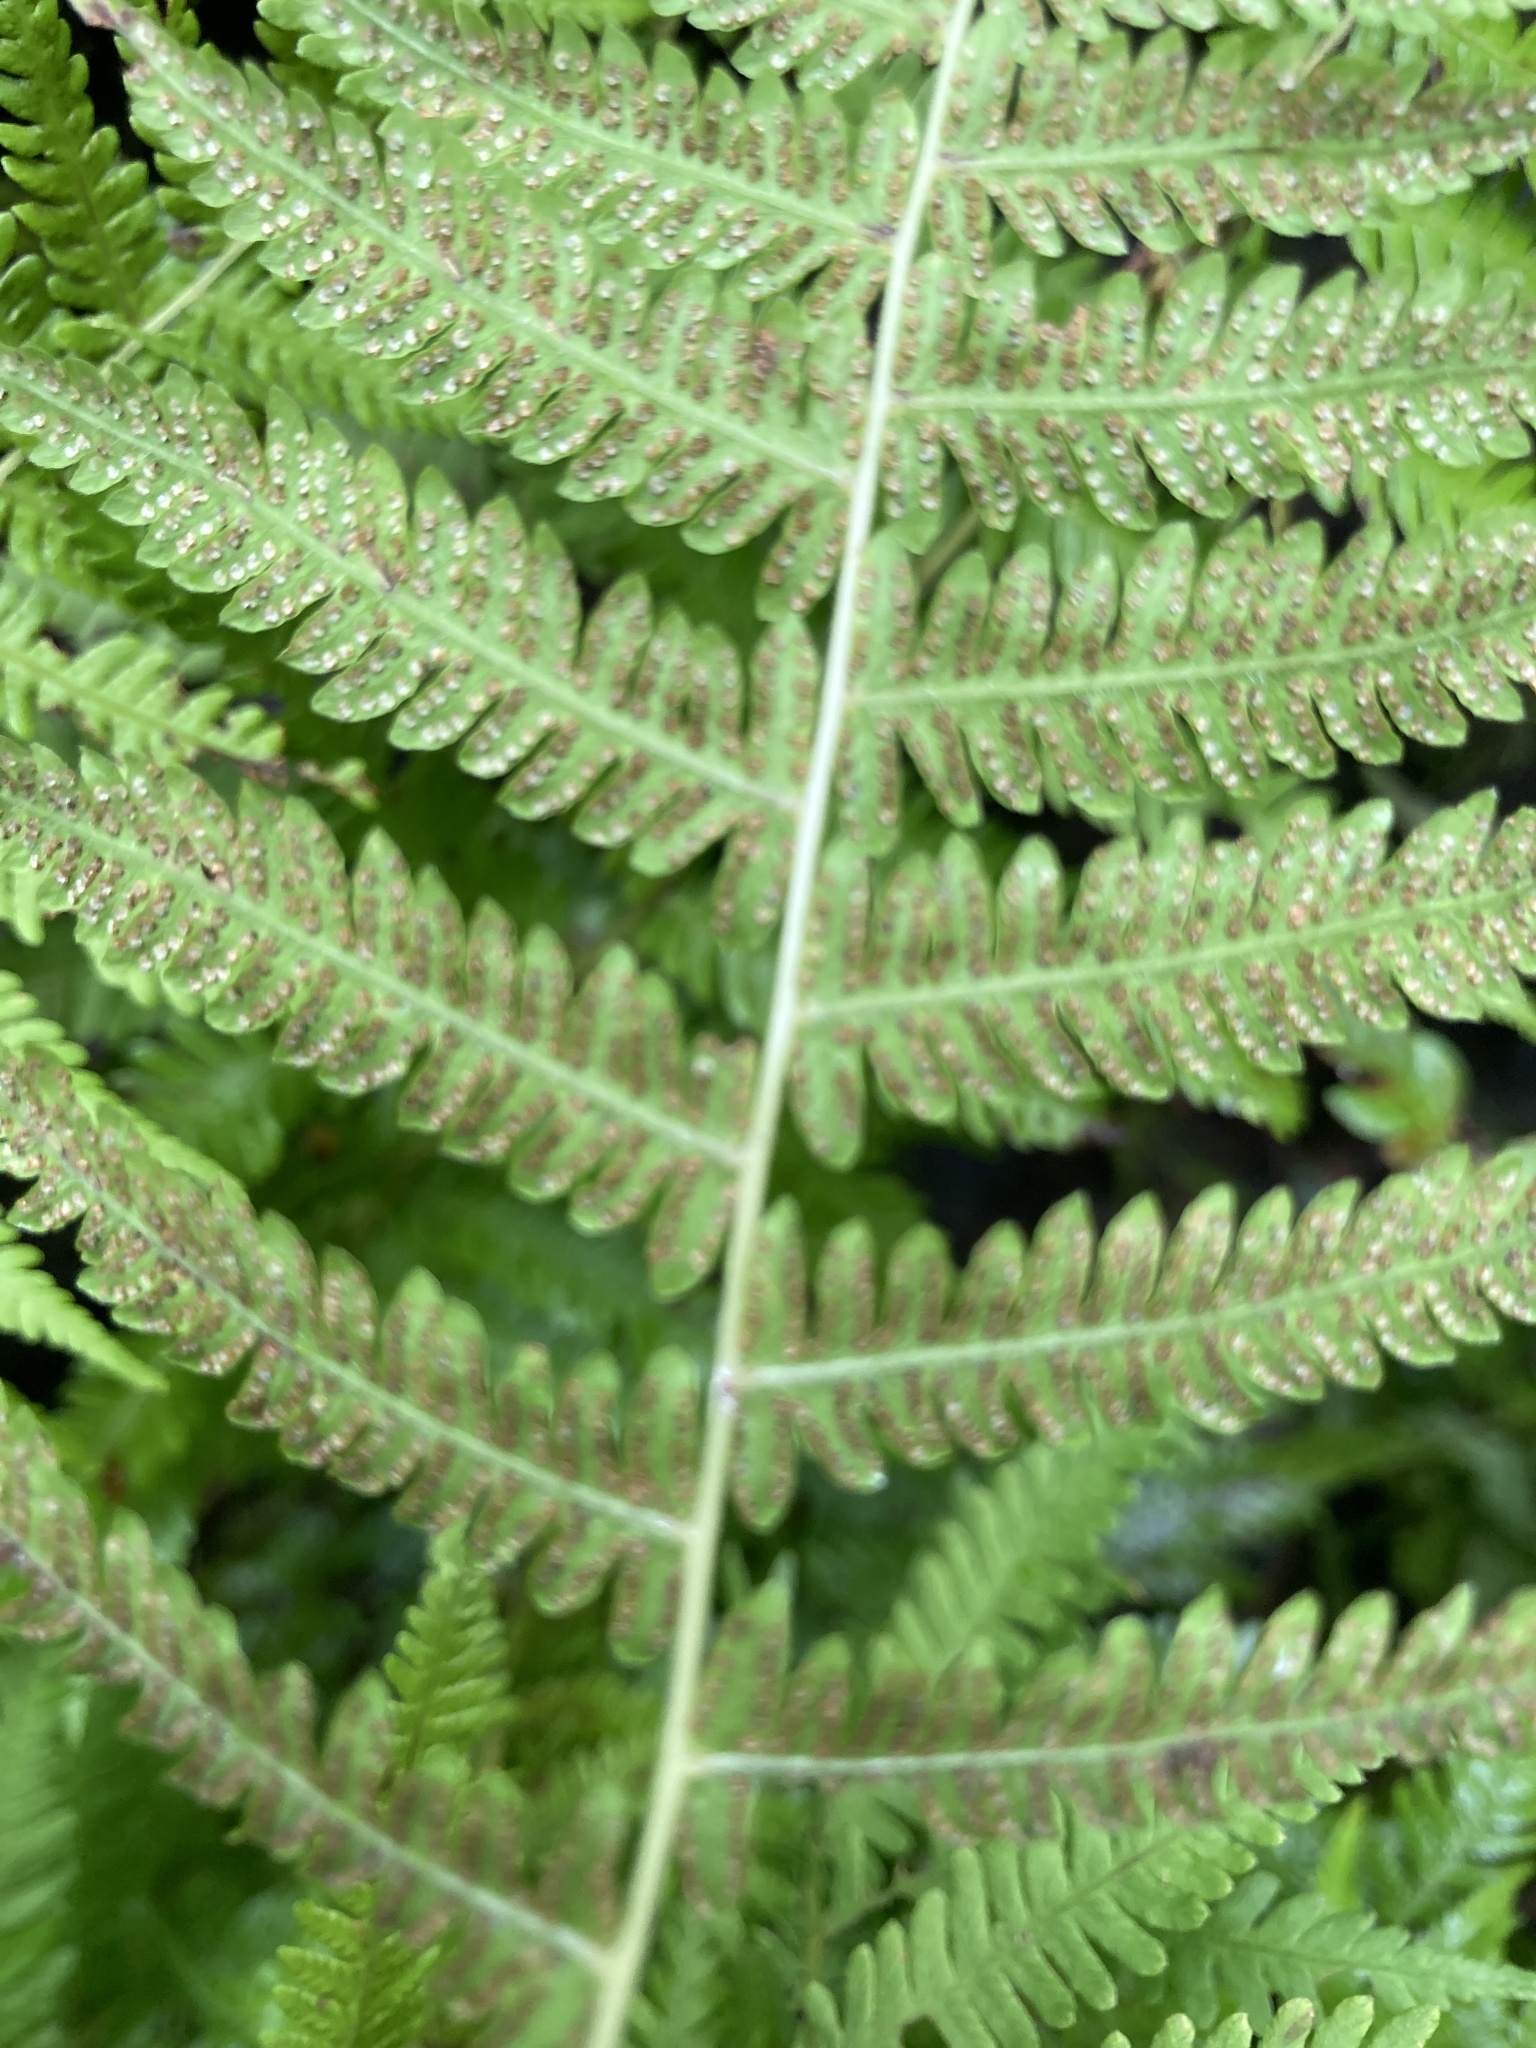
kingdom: Plantae
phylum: Tracheophyta
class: Polypodiopsida
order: Polypodiales
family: Thelypteridaceae
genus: Amauropelta
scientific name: Amauropelta noveboracensis
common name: New york fern
